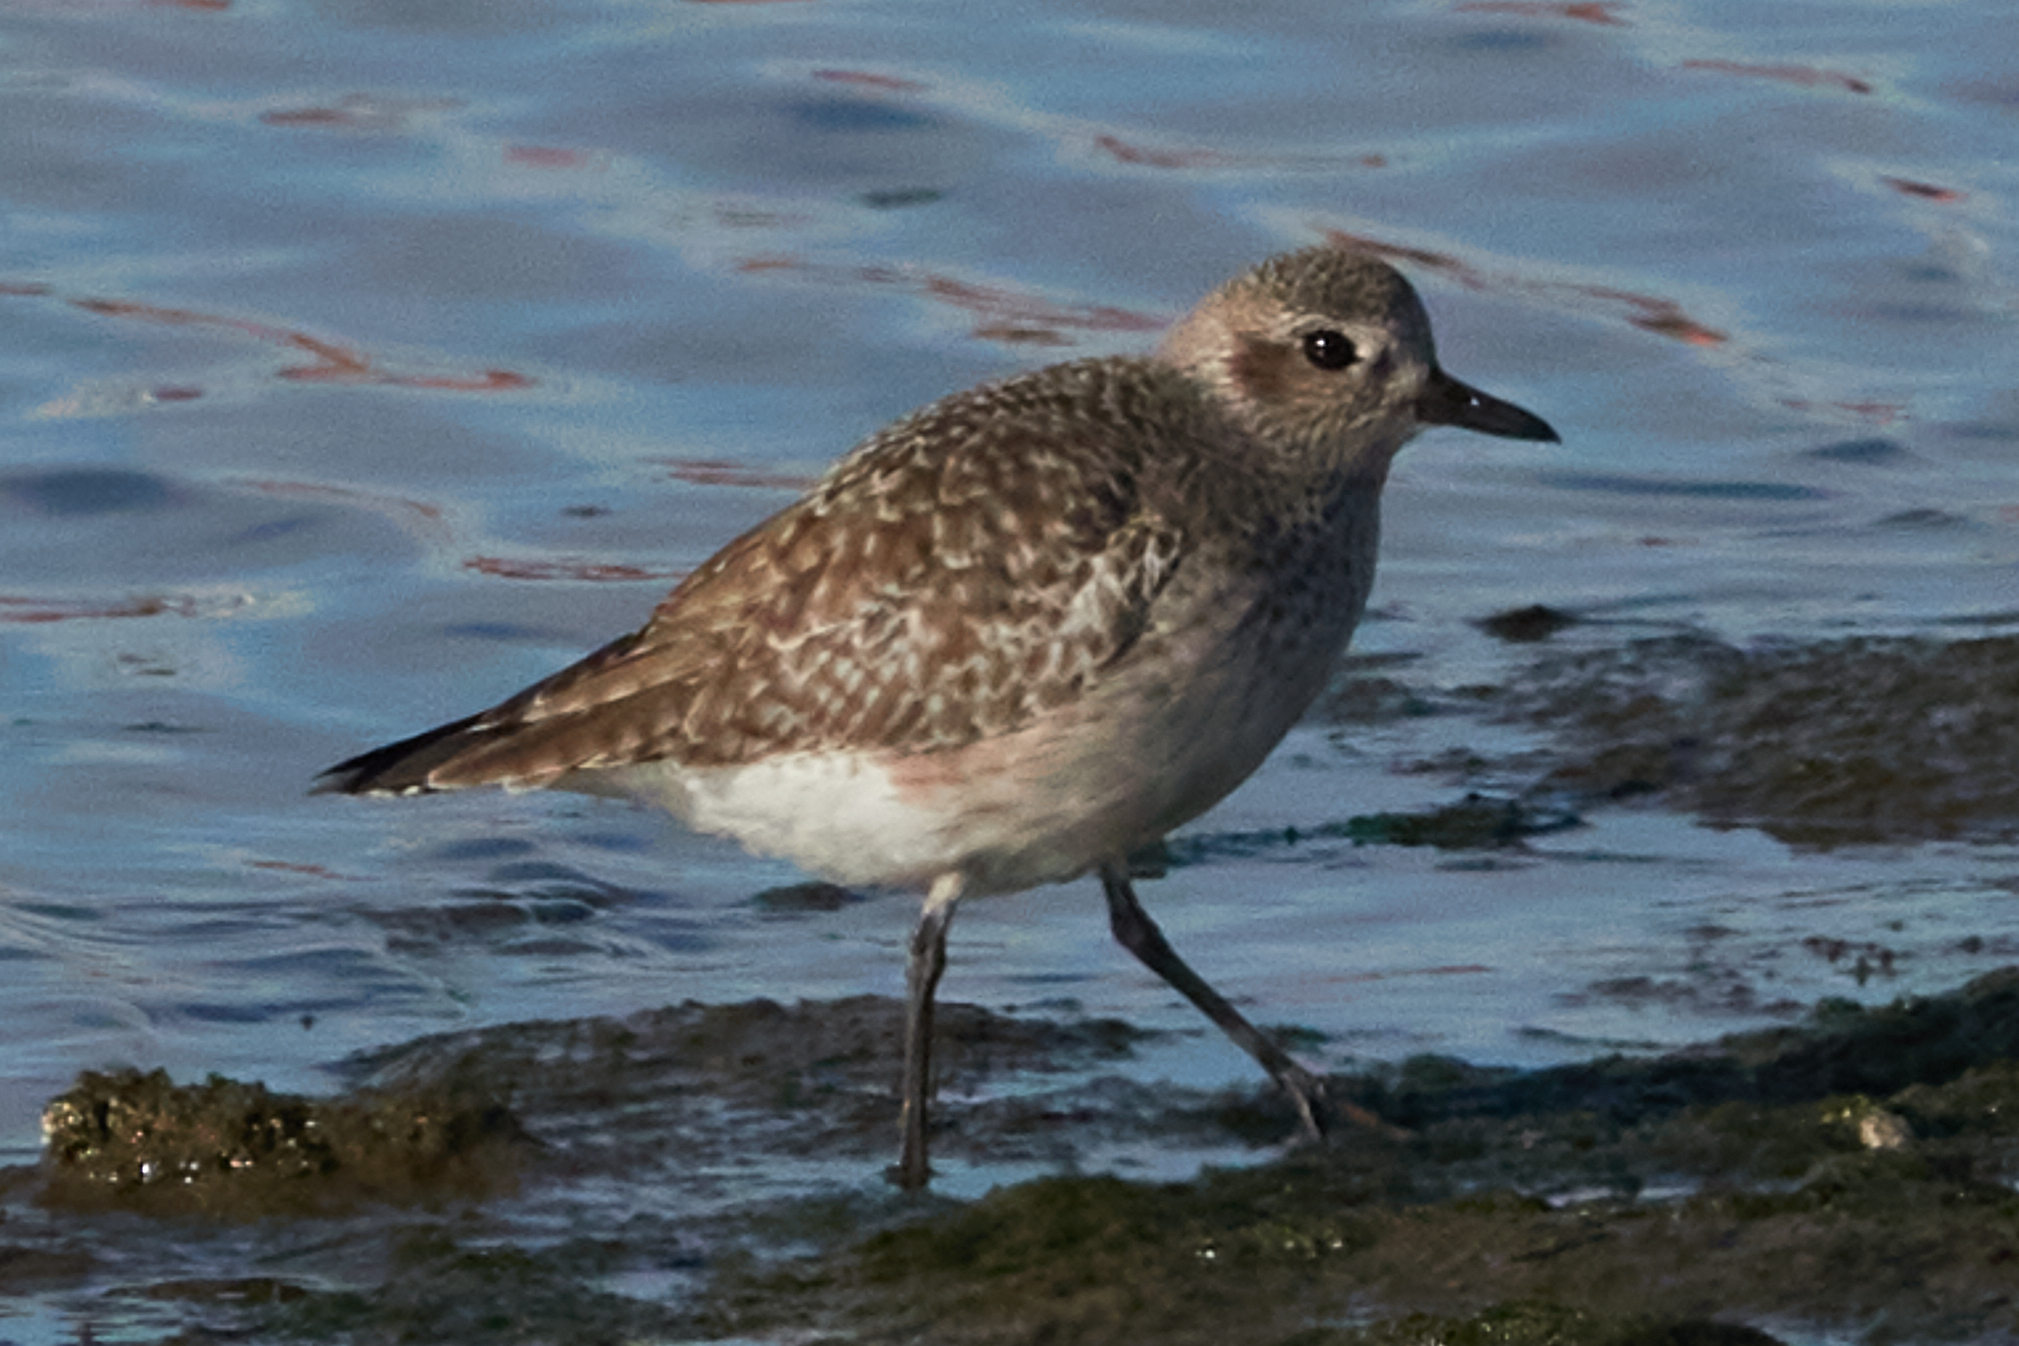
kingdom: Animalia
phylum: Chordata
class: Aves
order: Charadriiformes
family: Charadriidae
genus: Pluvialis
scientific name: Pluvialis squatarola
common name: Grey plover
